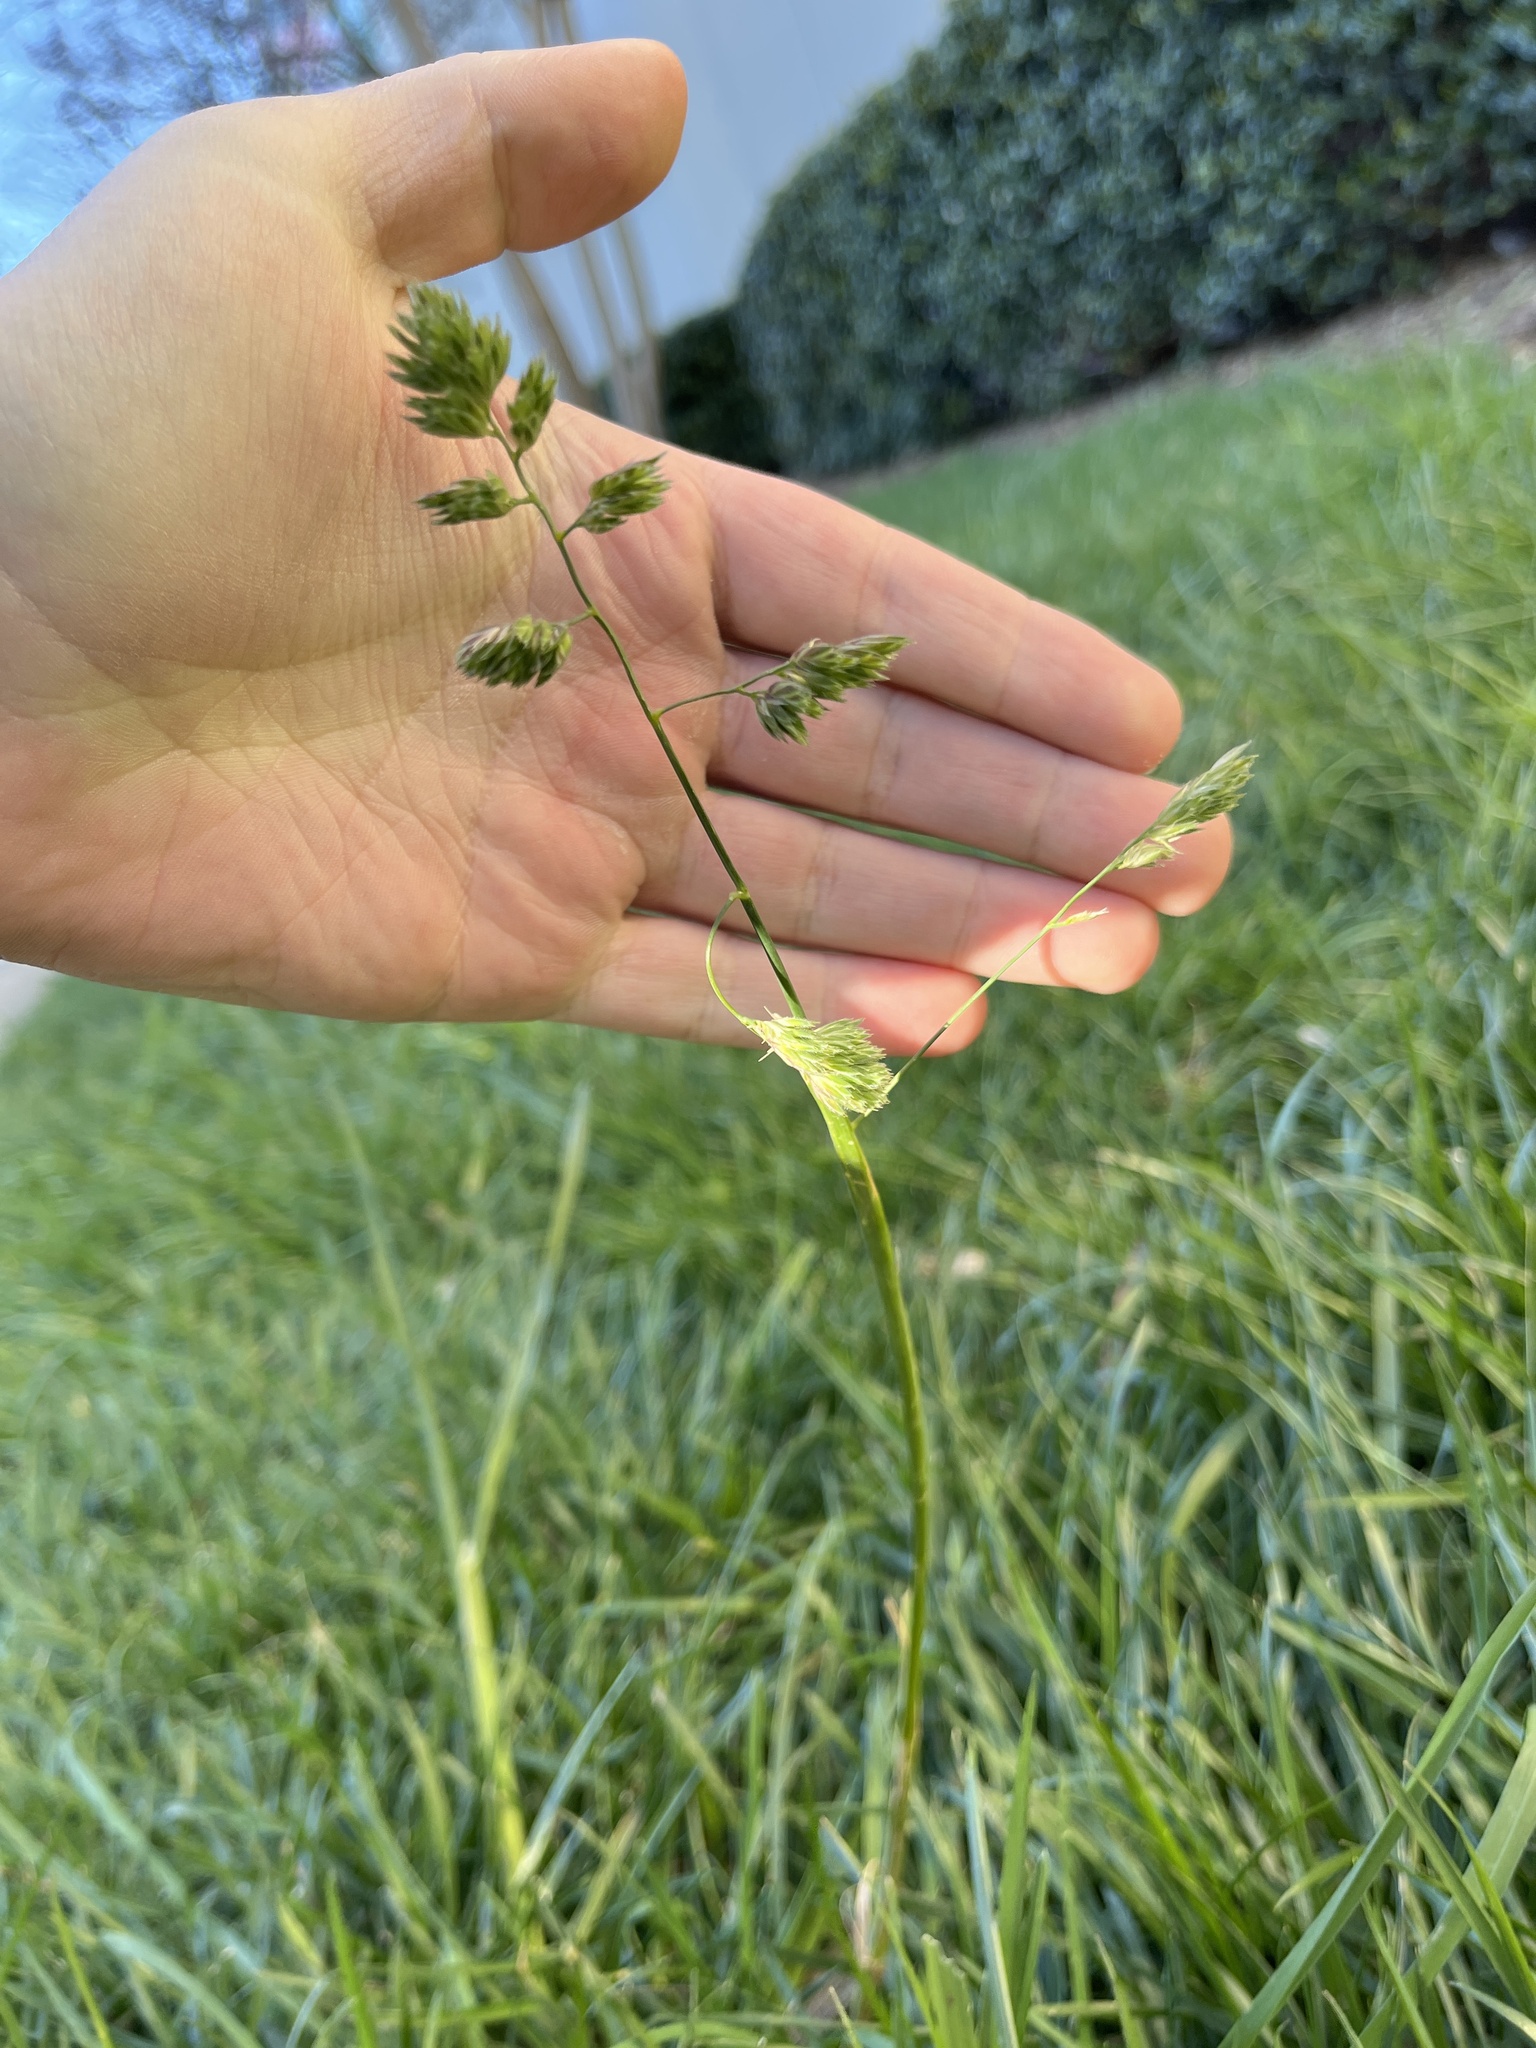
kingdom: Plantae
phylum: Tracheophyta
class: Liliopsida
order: Poales
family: Poaceae
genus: Dactylis
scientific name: Dactylis glomerata
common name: Orchardgrass
